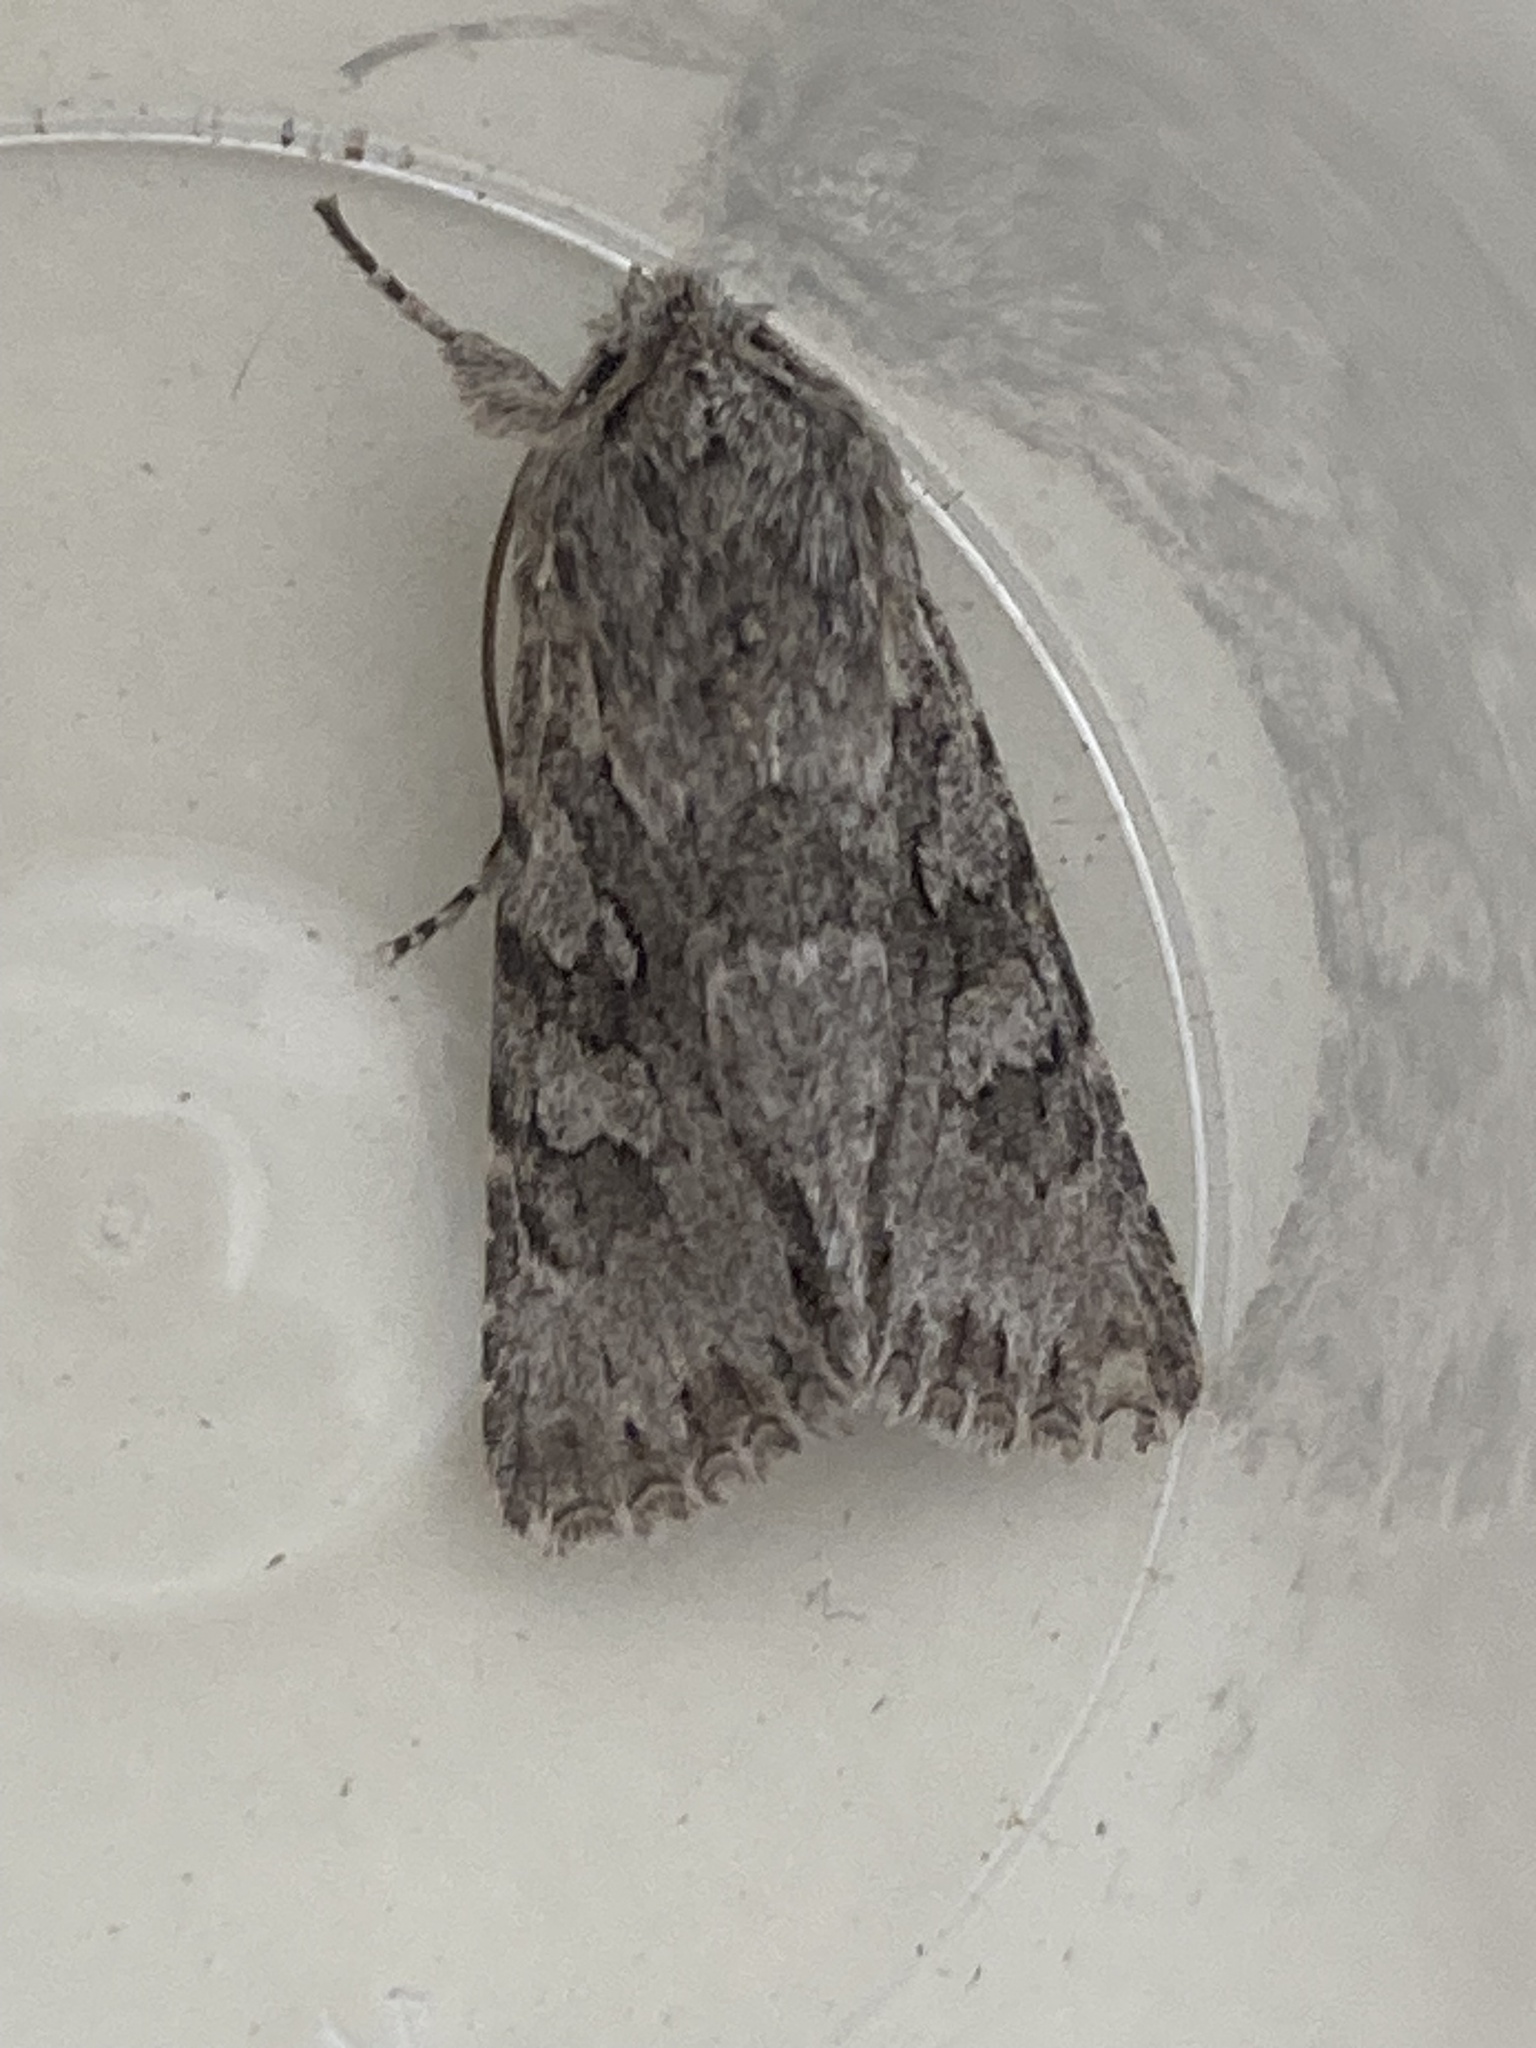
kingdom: Animalia
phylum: Arthropoda
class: Insecta
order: Lepidoptera
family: Noctuidae
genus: Xylocampa
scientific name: Xylocampa areola
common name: Early grey
